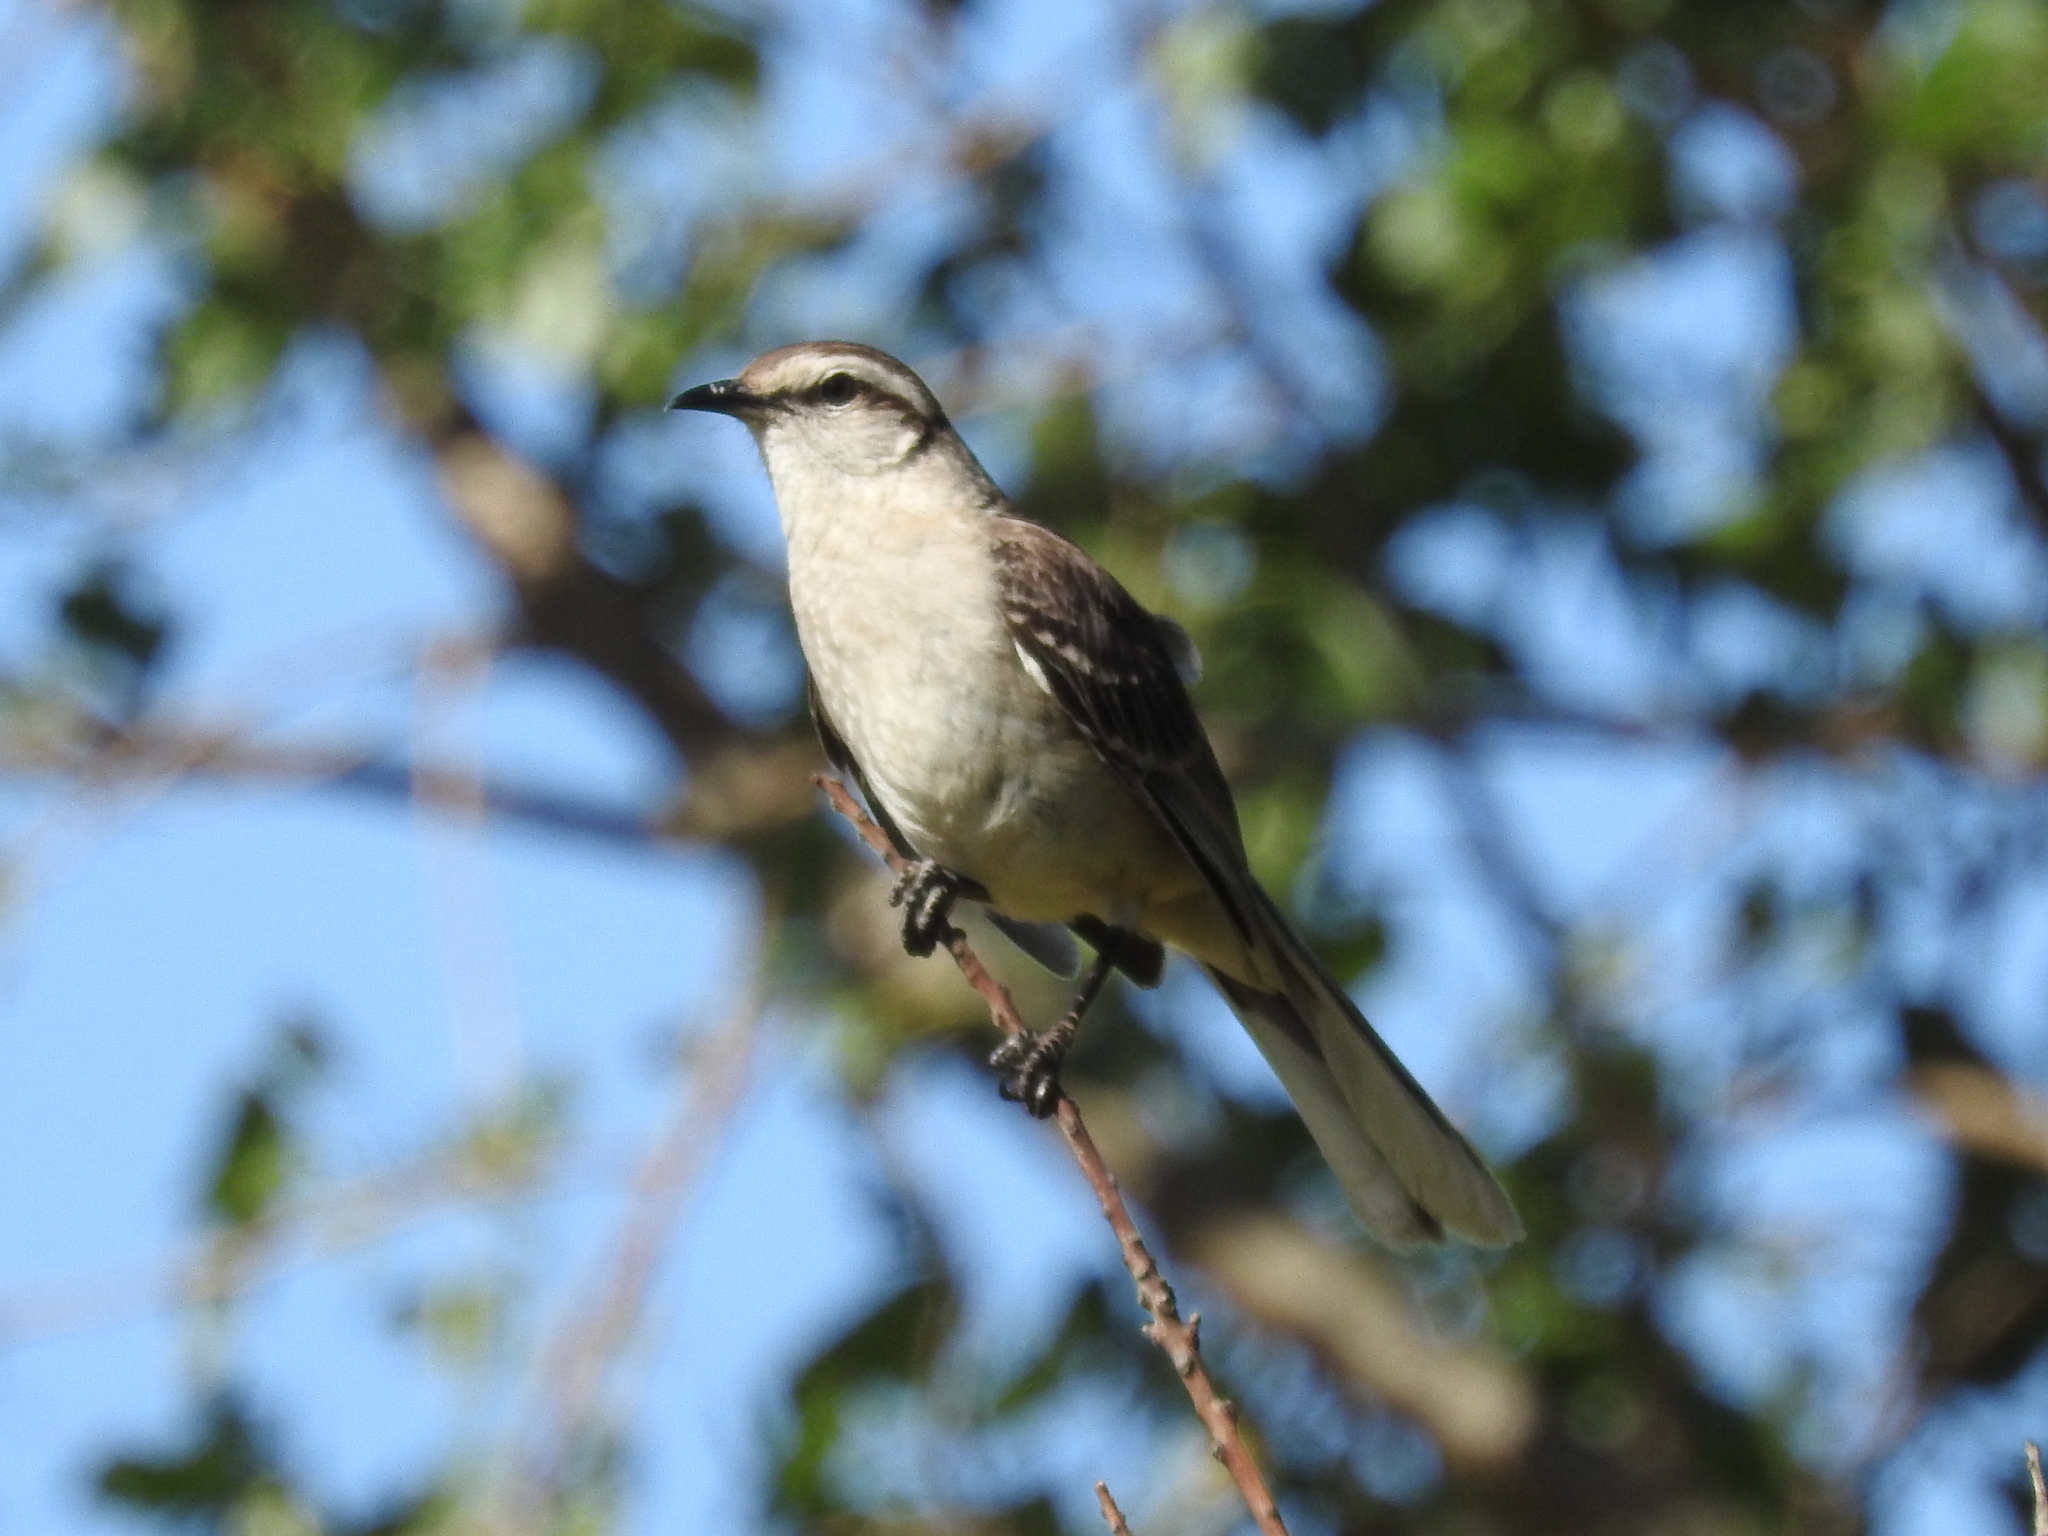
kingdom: Animalia
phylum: Chordata
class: Aves
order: Passeriformes
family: Mimidae
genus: Mimus
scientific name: Mimus saturninus
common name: Chalk-browed mockingbird
